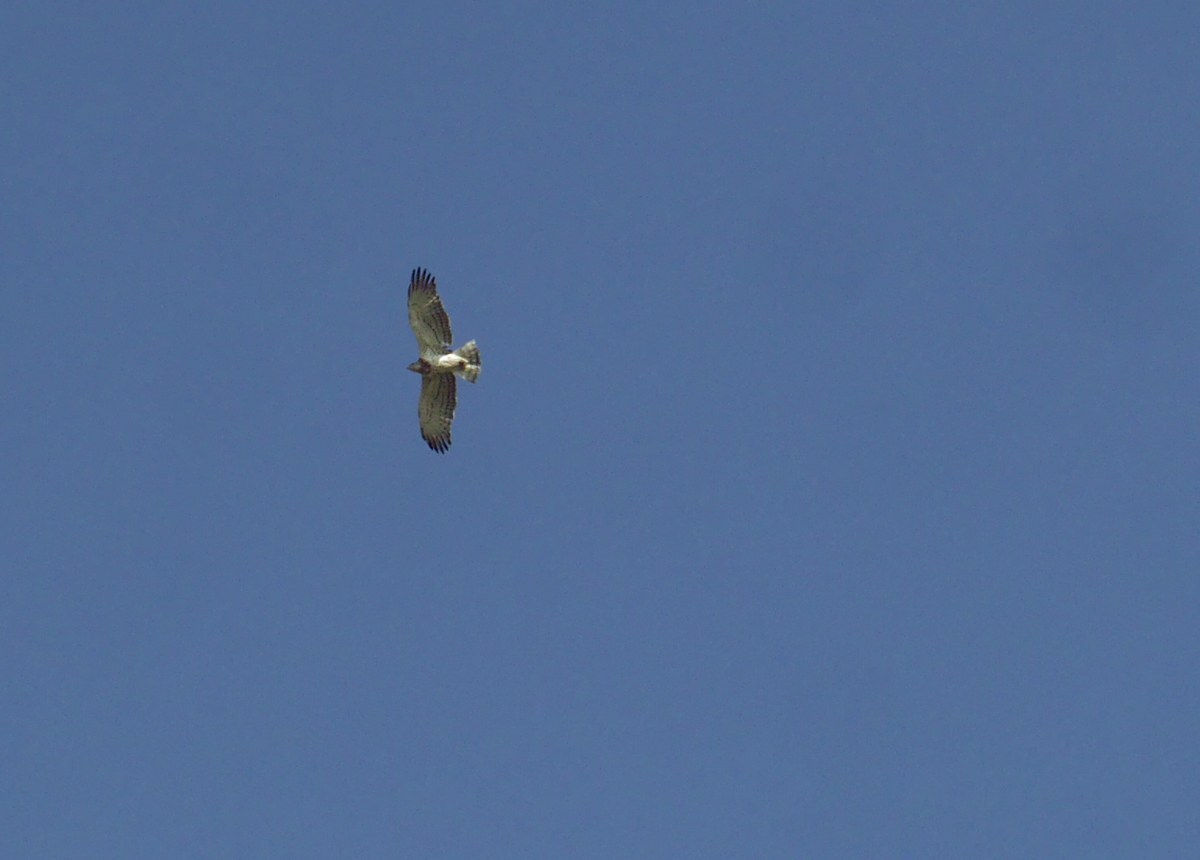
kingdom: Animalia
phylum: Chordata
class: Aves
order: Accipitriformes
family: Accipitridae
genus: Circaetus
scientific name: Circaetus gallicus
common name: Short-toed snake eagle
